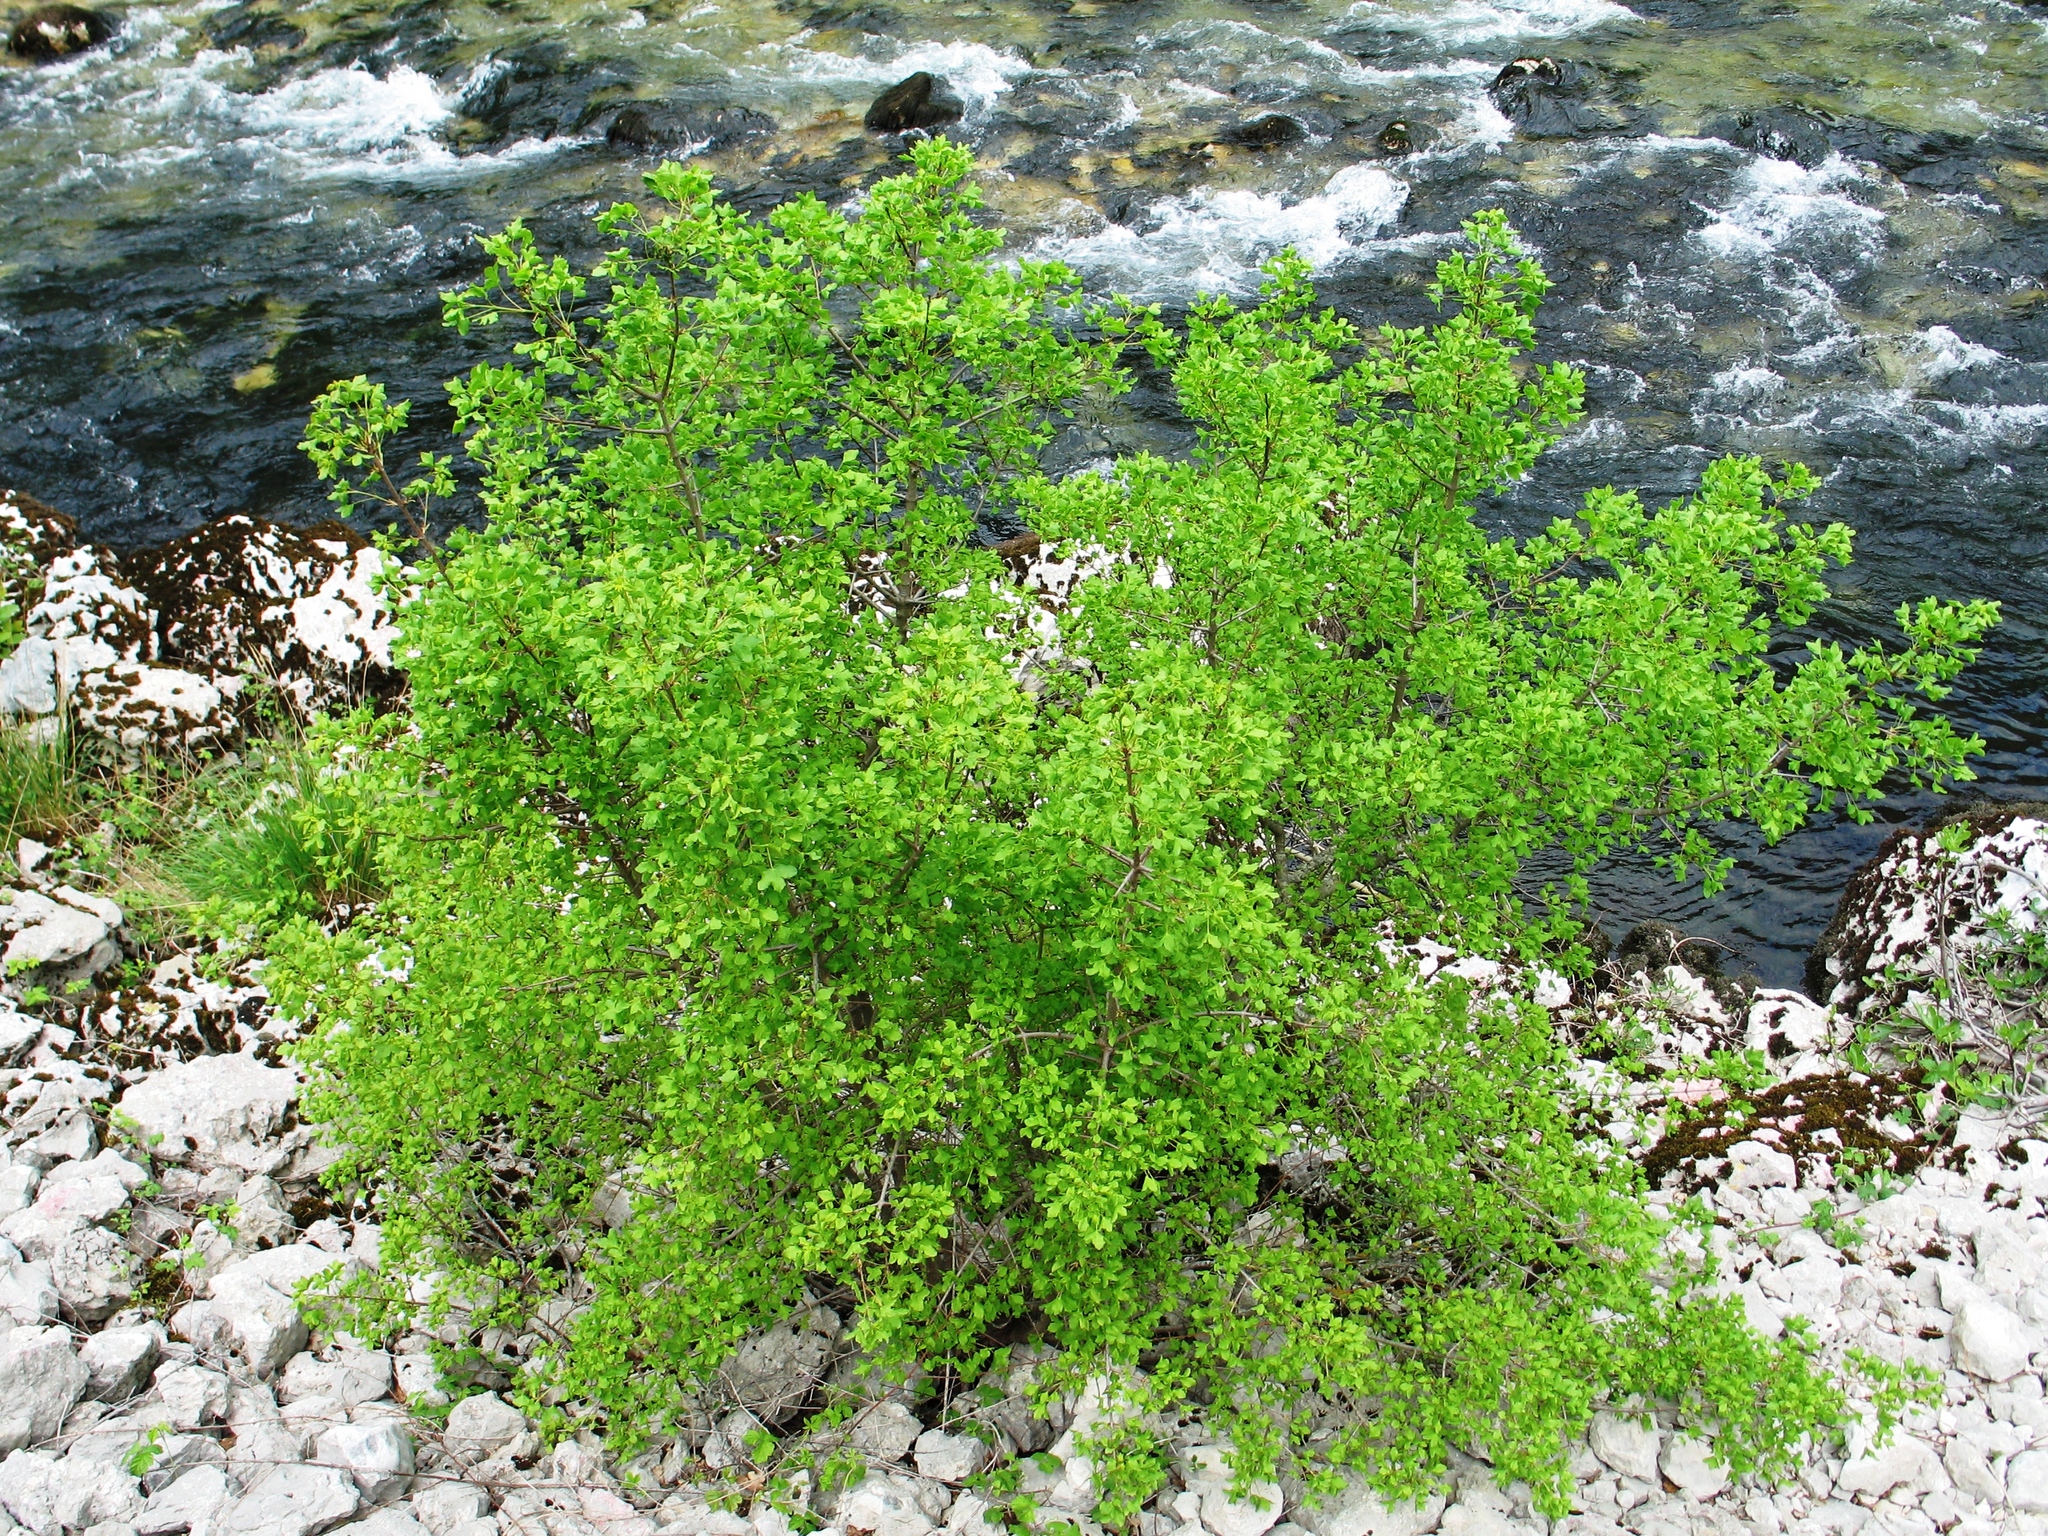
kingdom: Plantae
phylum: Tracheophyta
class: Magnoliopsida
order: Sapindales
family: Sapindaceae
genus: Acer
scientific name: Acer monspessulanum
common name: Montpellier maple
